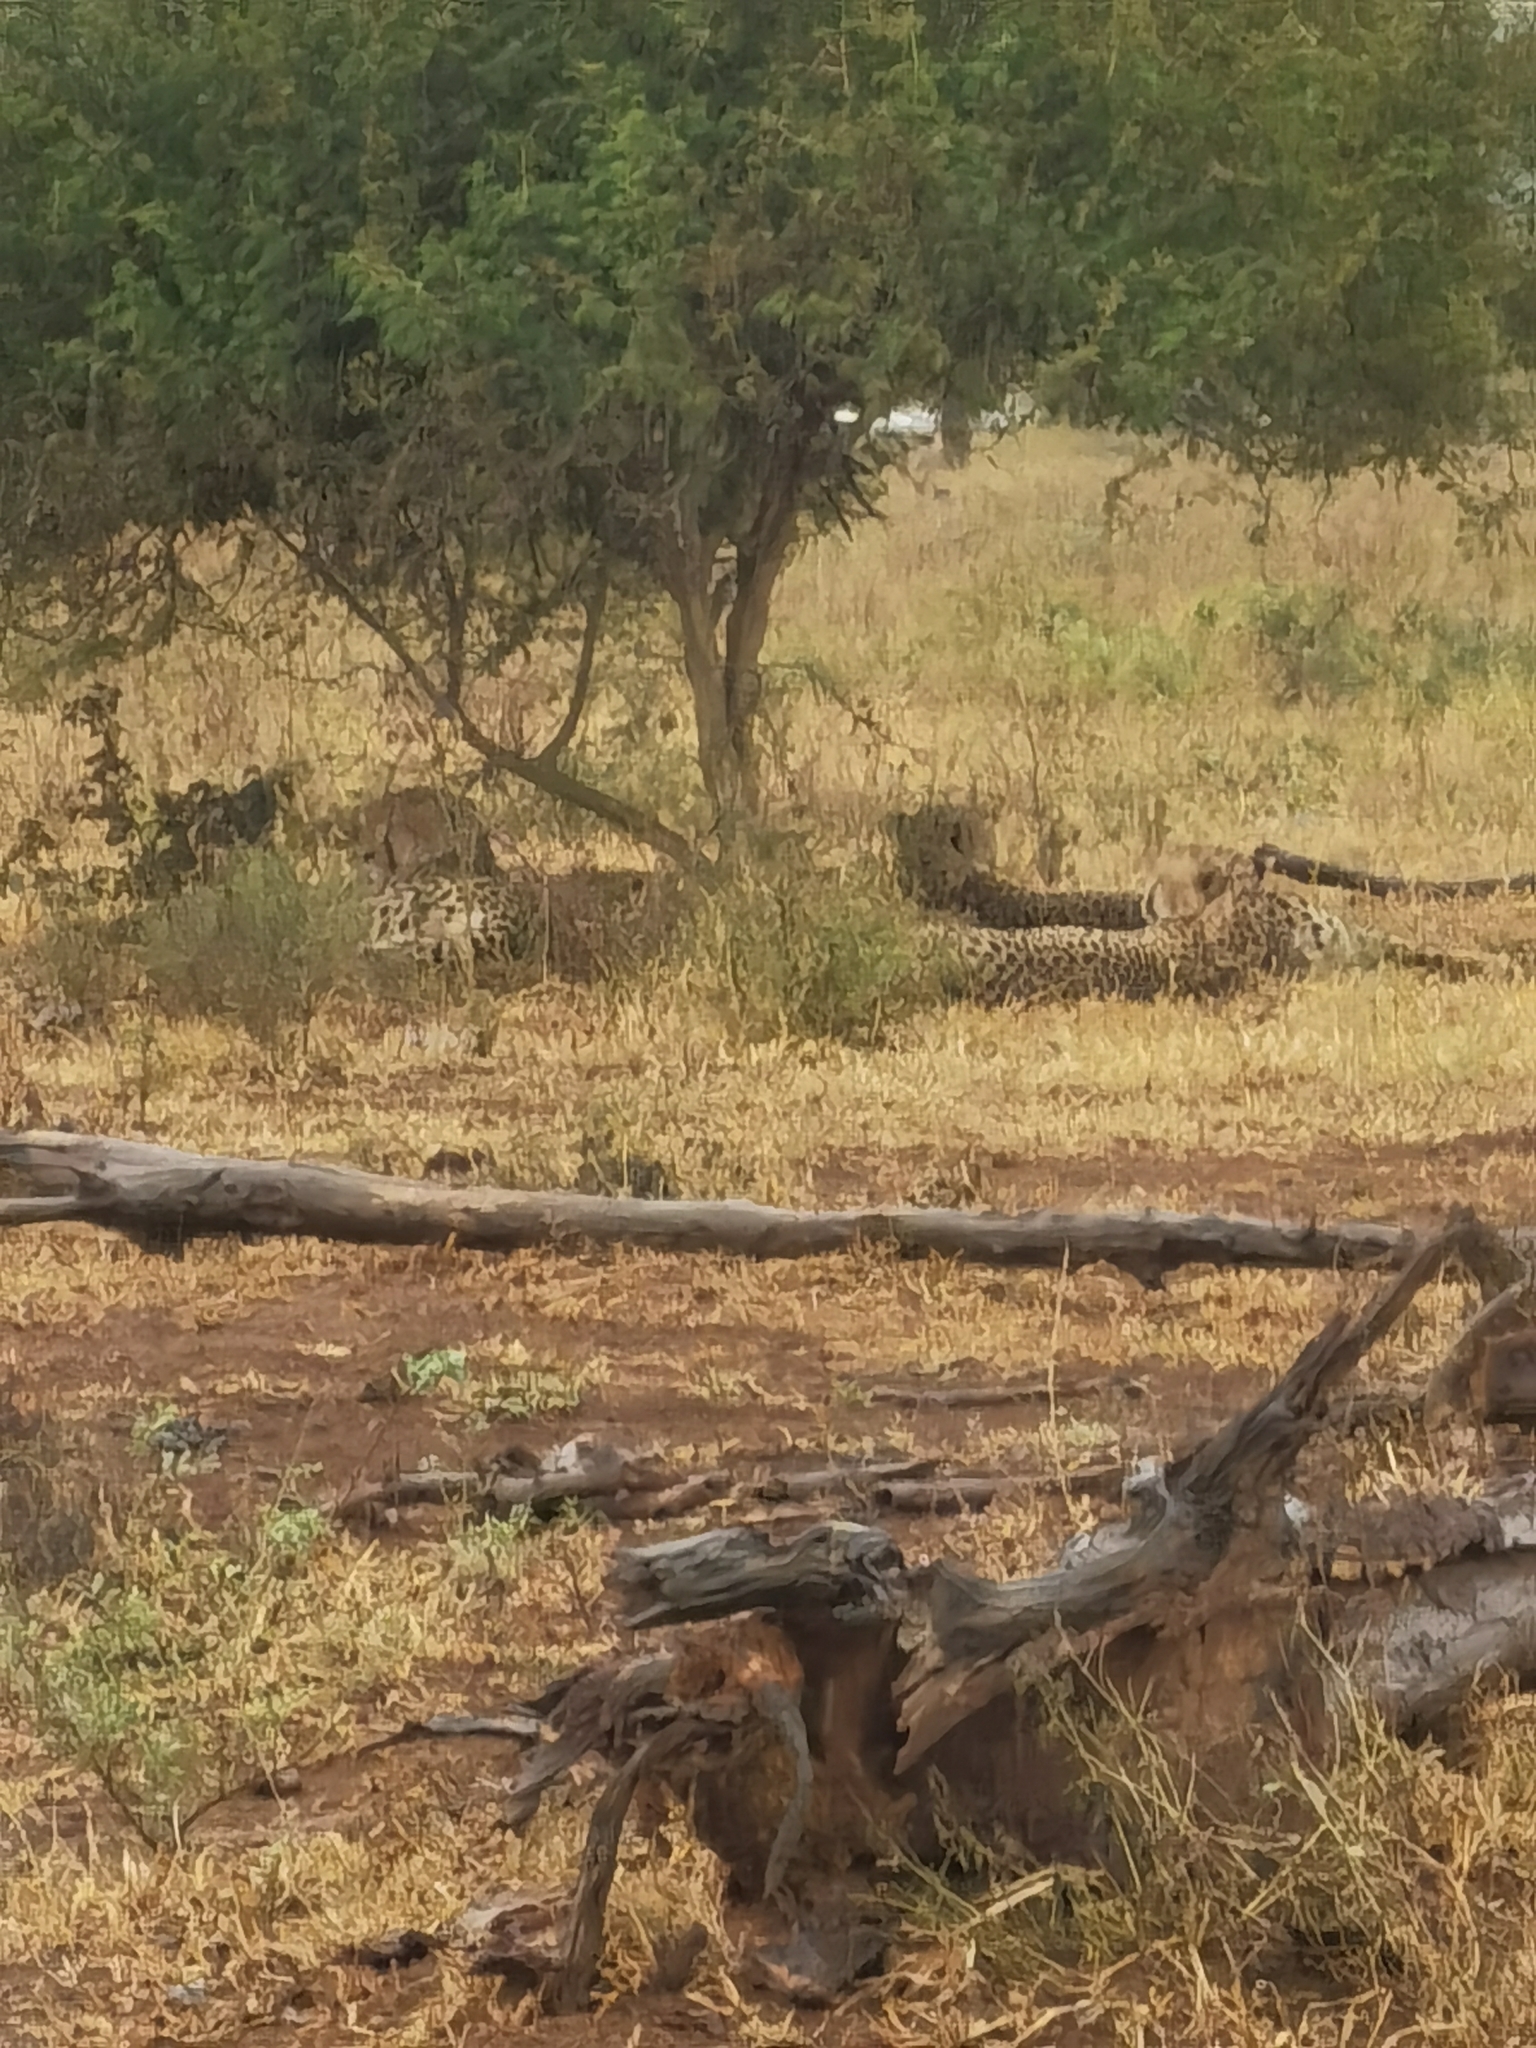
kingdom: Animalia
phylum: Chordata
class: Mammalia
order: Carnivora
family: Felidae
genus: Acinonyx
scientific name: Acinonyx jubatus
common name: Cheetah
